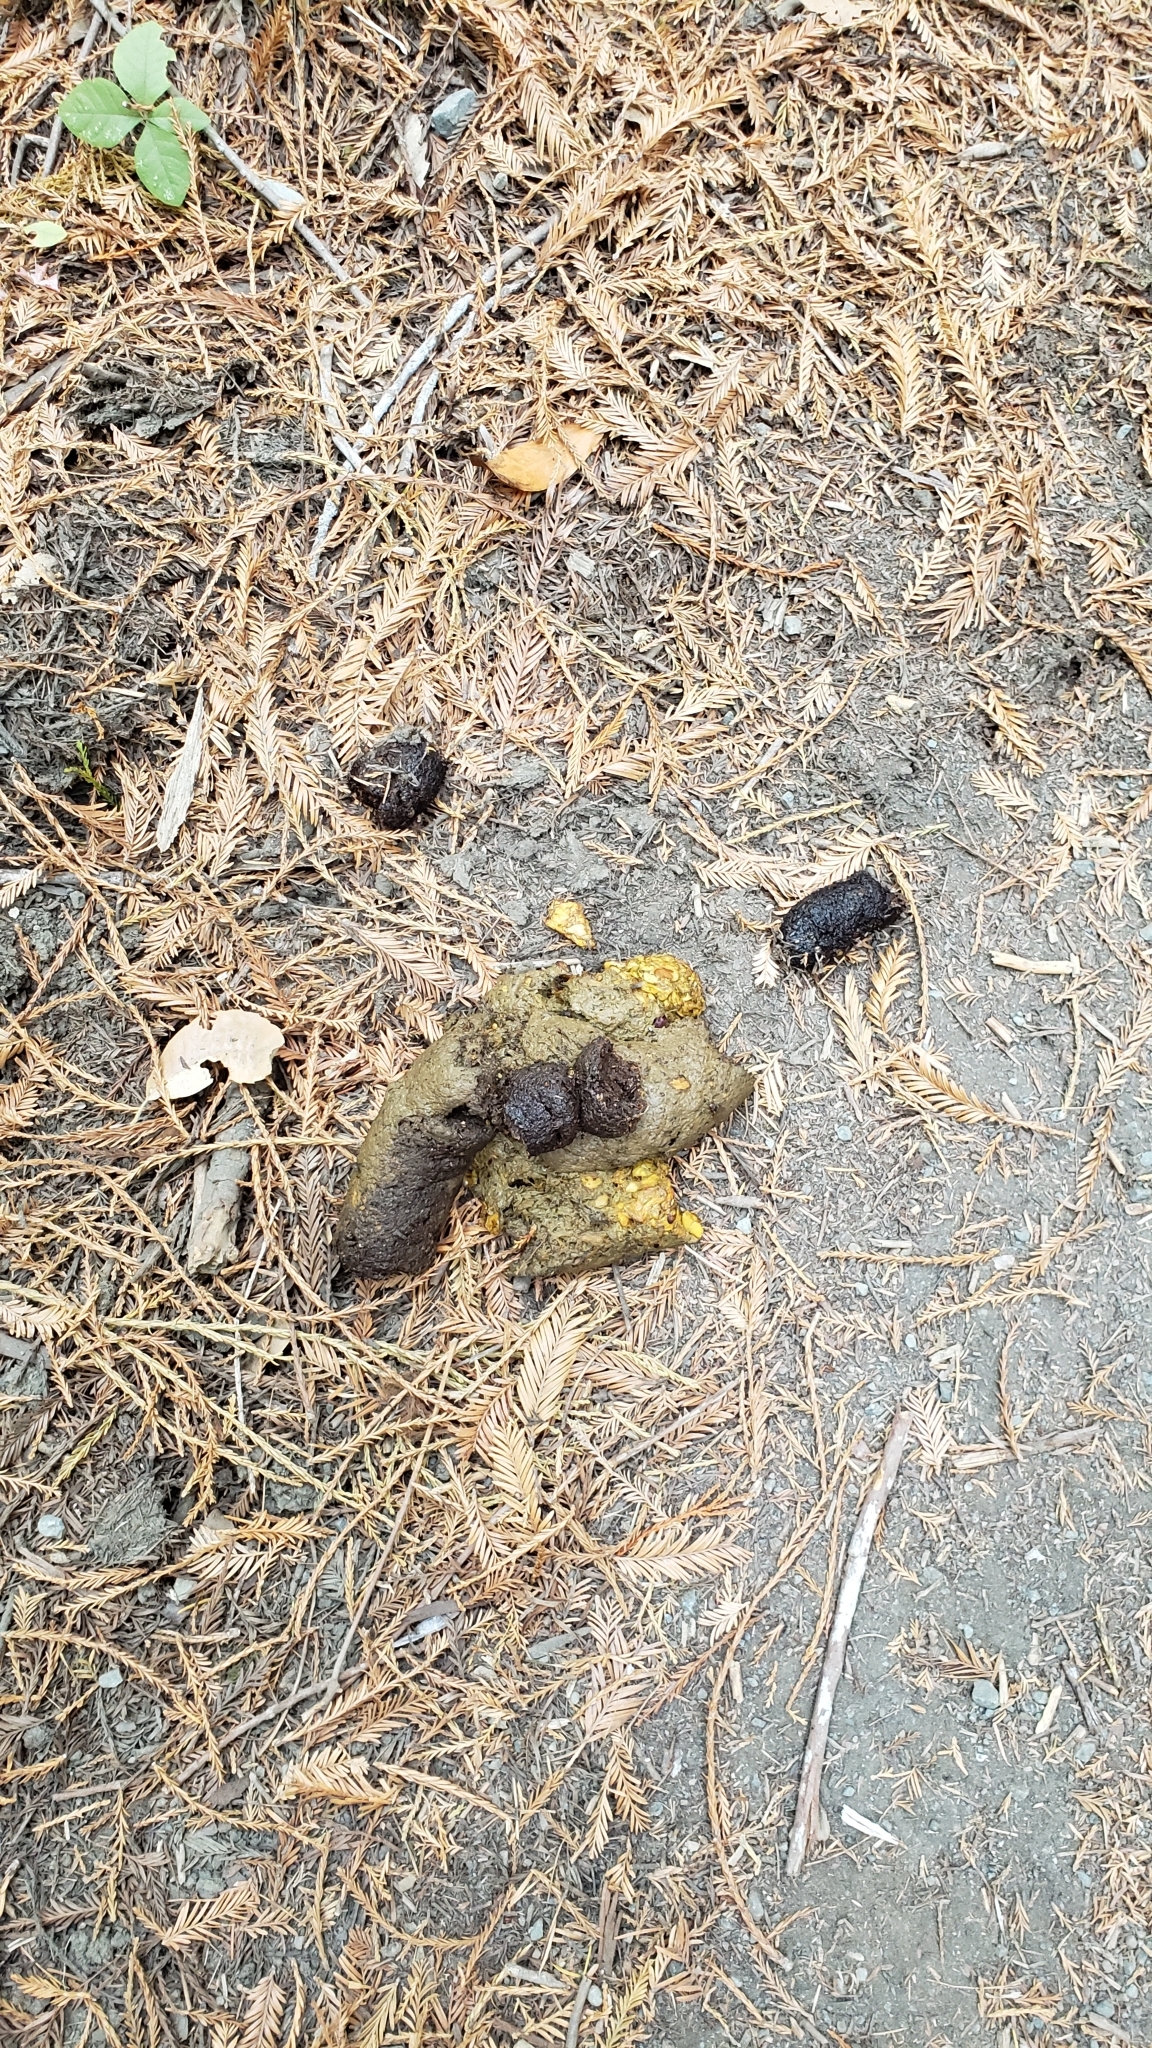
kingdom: Animalia
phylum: Chordata
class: Mammalia
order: Carnivora
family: Ursidae
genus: Ursus
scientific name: Ursus americanus
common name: American black bear
